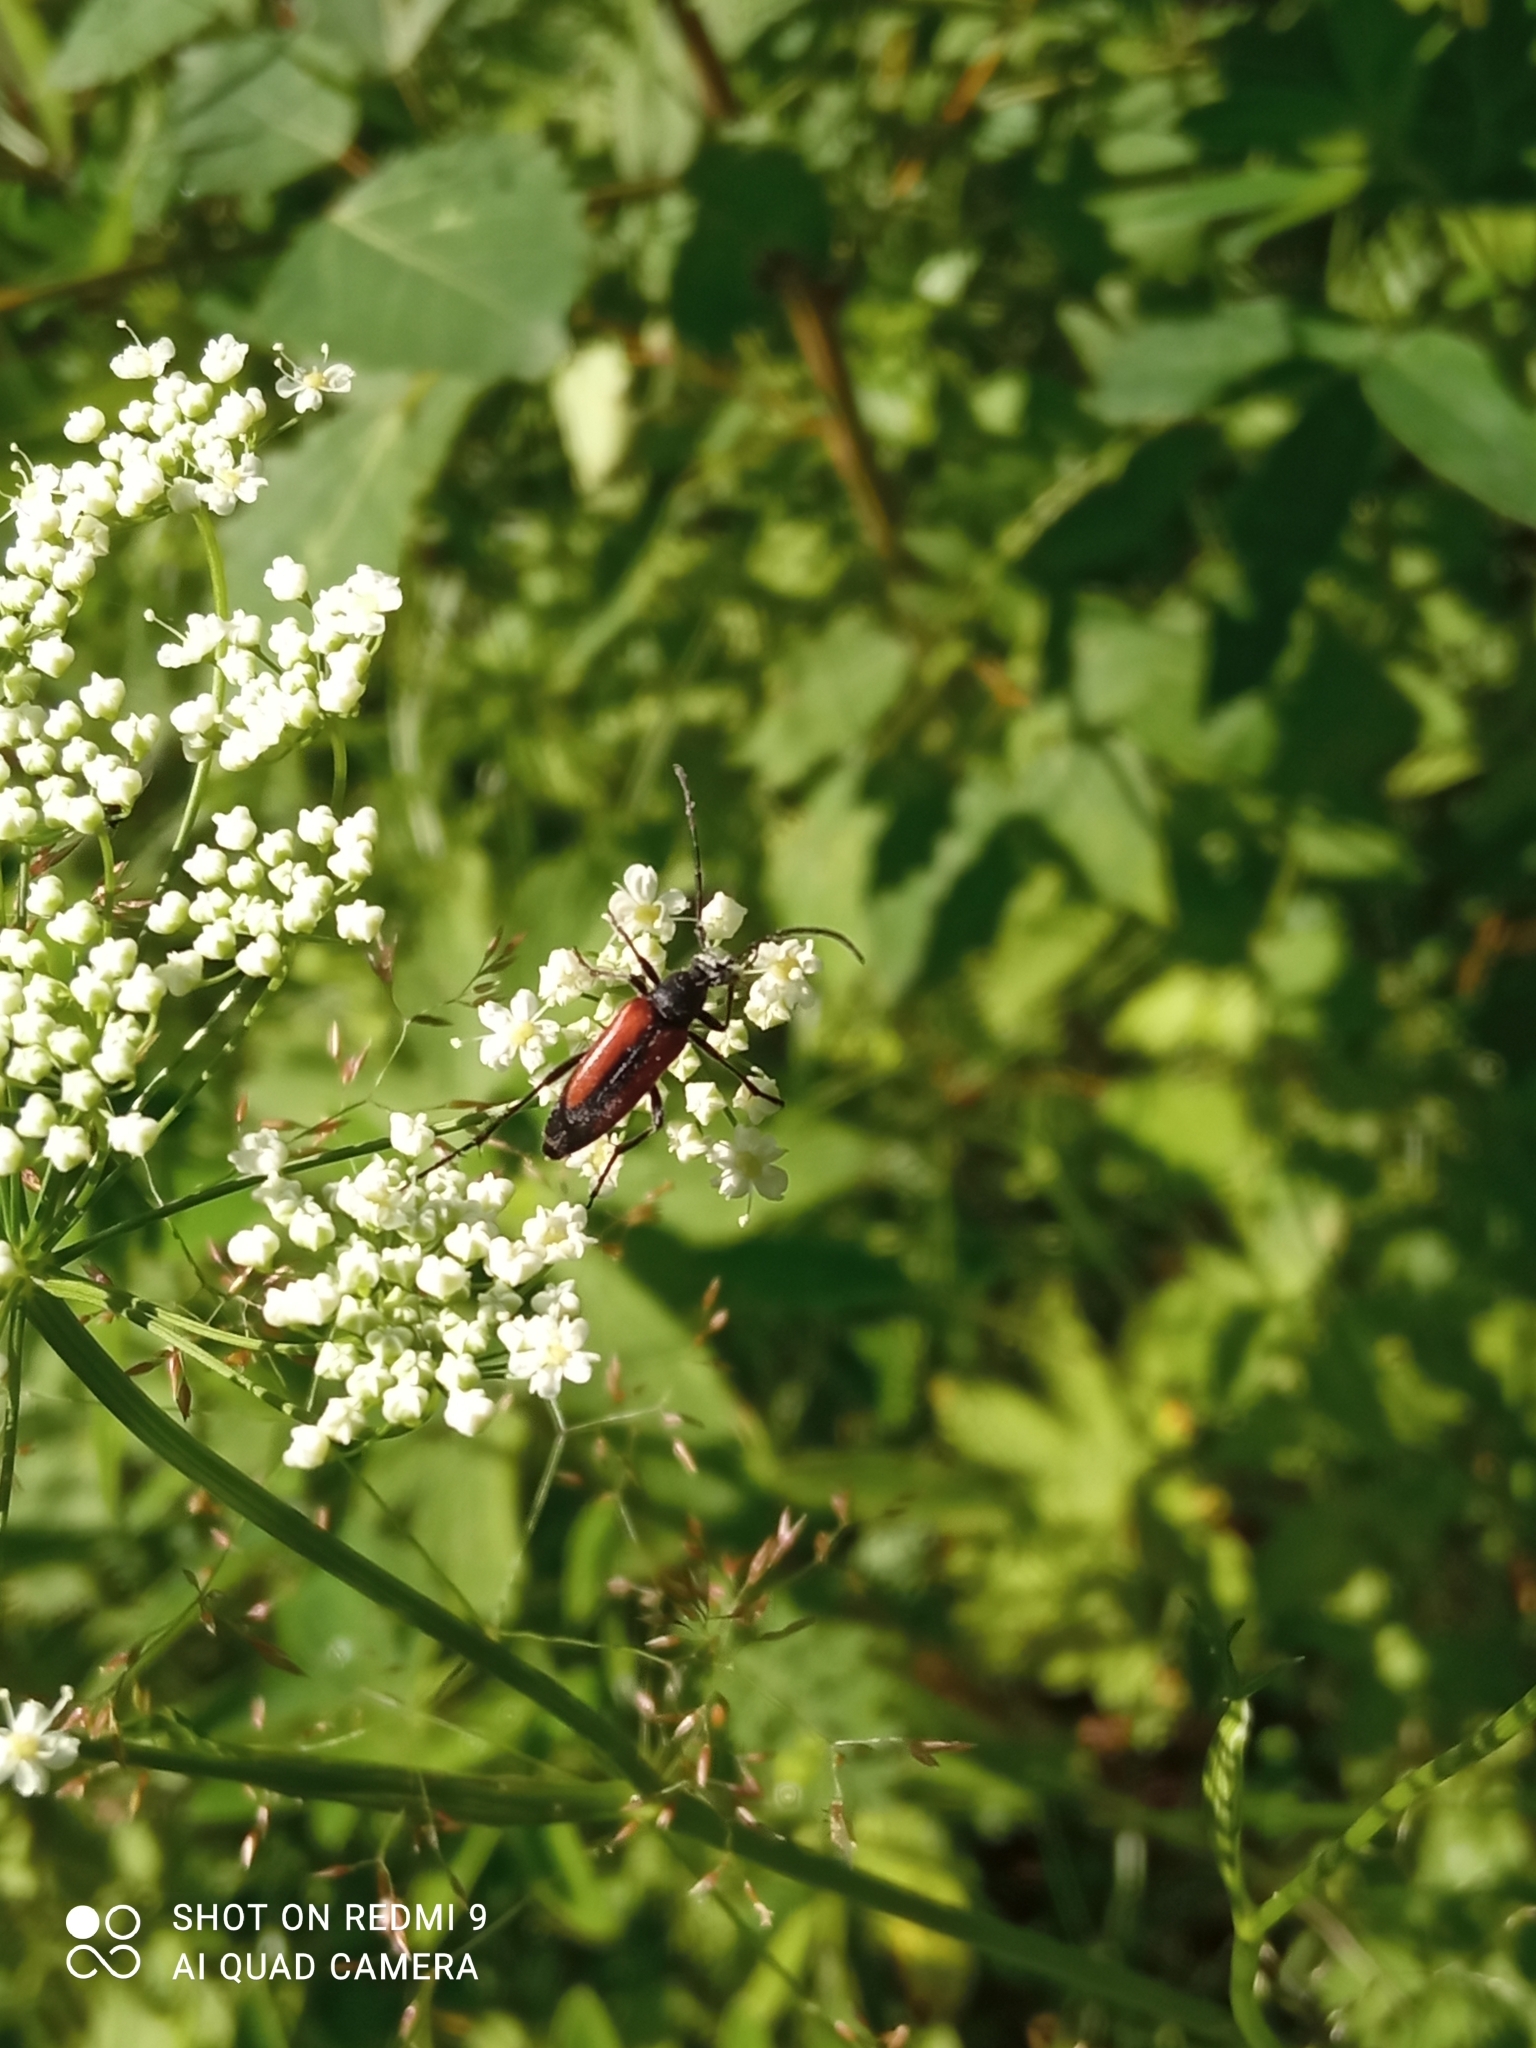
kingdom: Animalia
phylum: Arthropoda
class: Insecta
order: Coleoptera
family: Cerambycidae
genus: Stenurella
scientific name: Stenurella melanura
